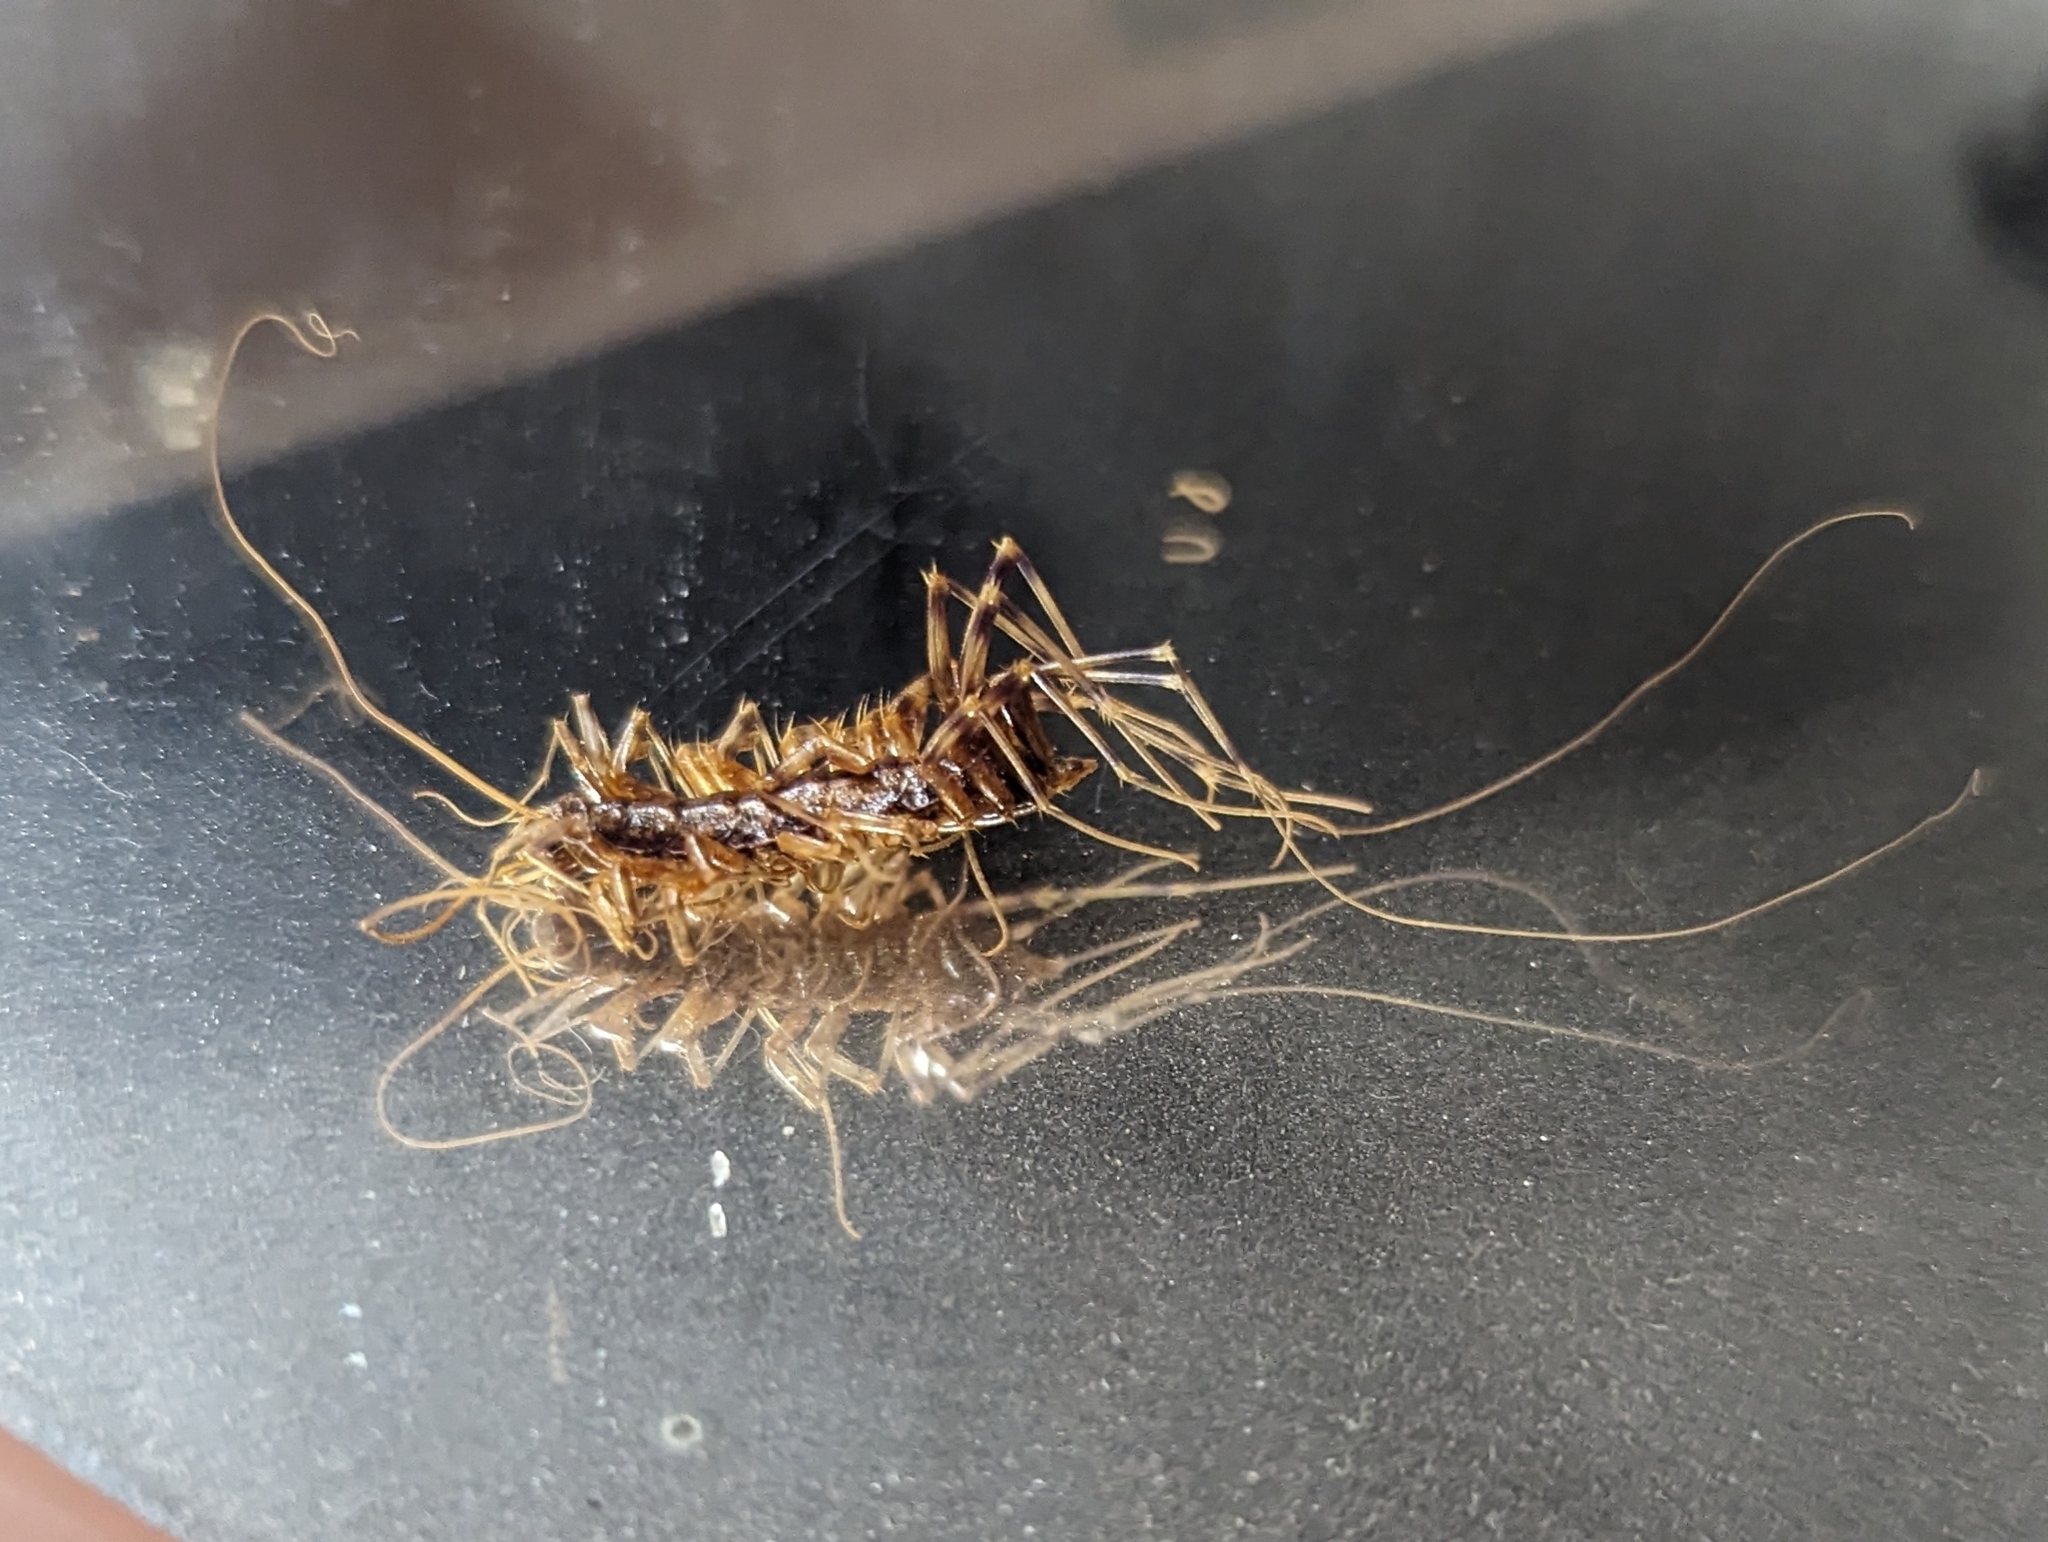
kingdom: Animalia
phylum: Arthropoda
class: Chilopoda
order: Scutigeromorpha
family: Scutigeridae
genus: Scutigera
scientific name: Scutigera coleoptrata
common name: House centipede
